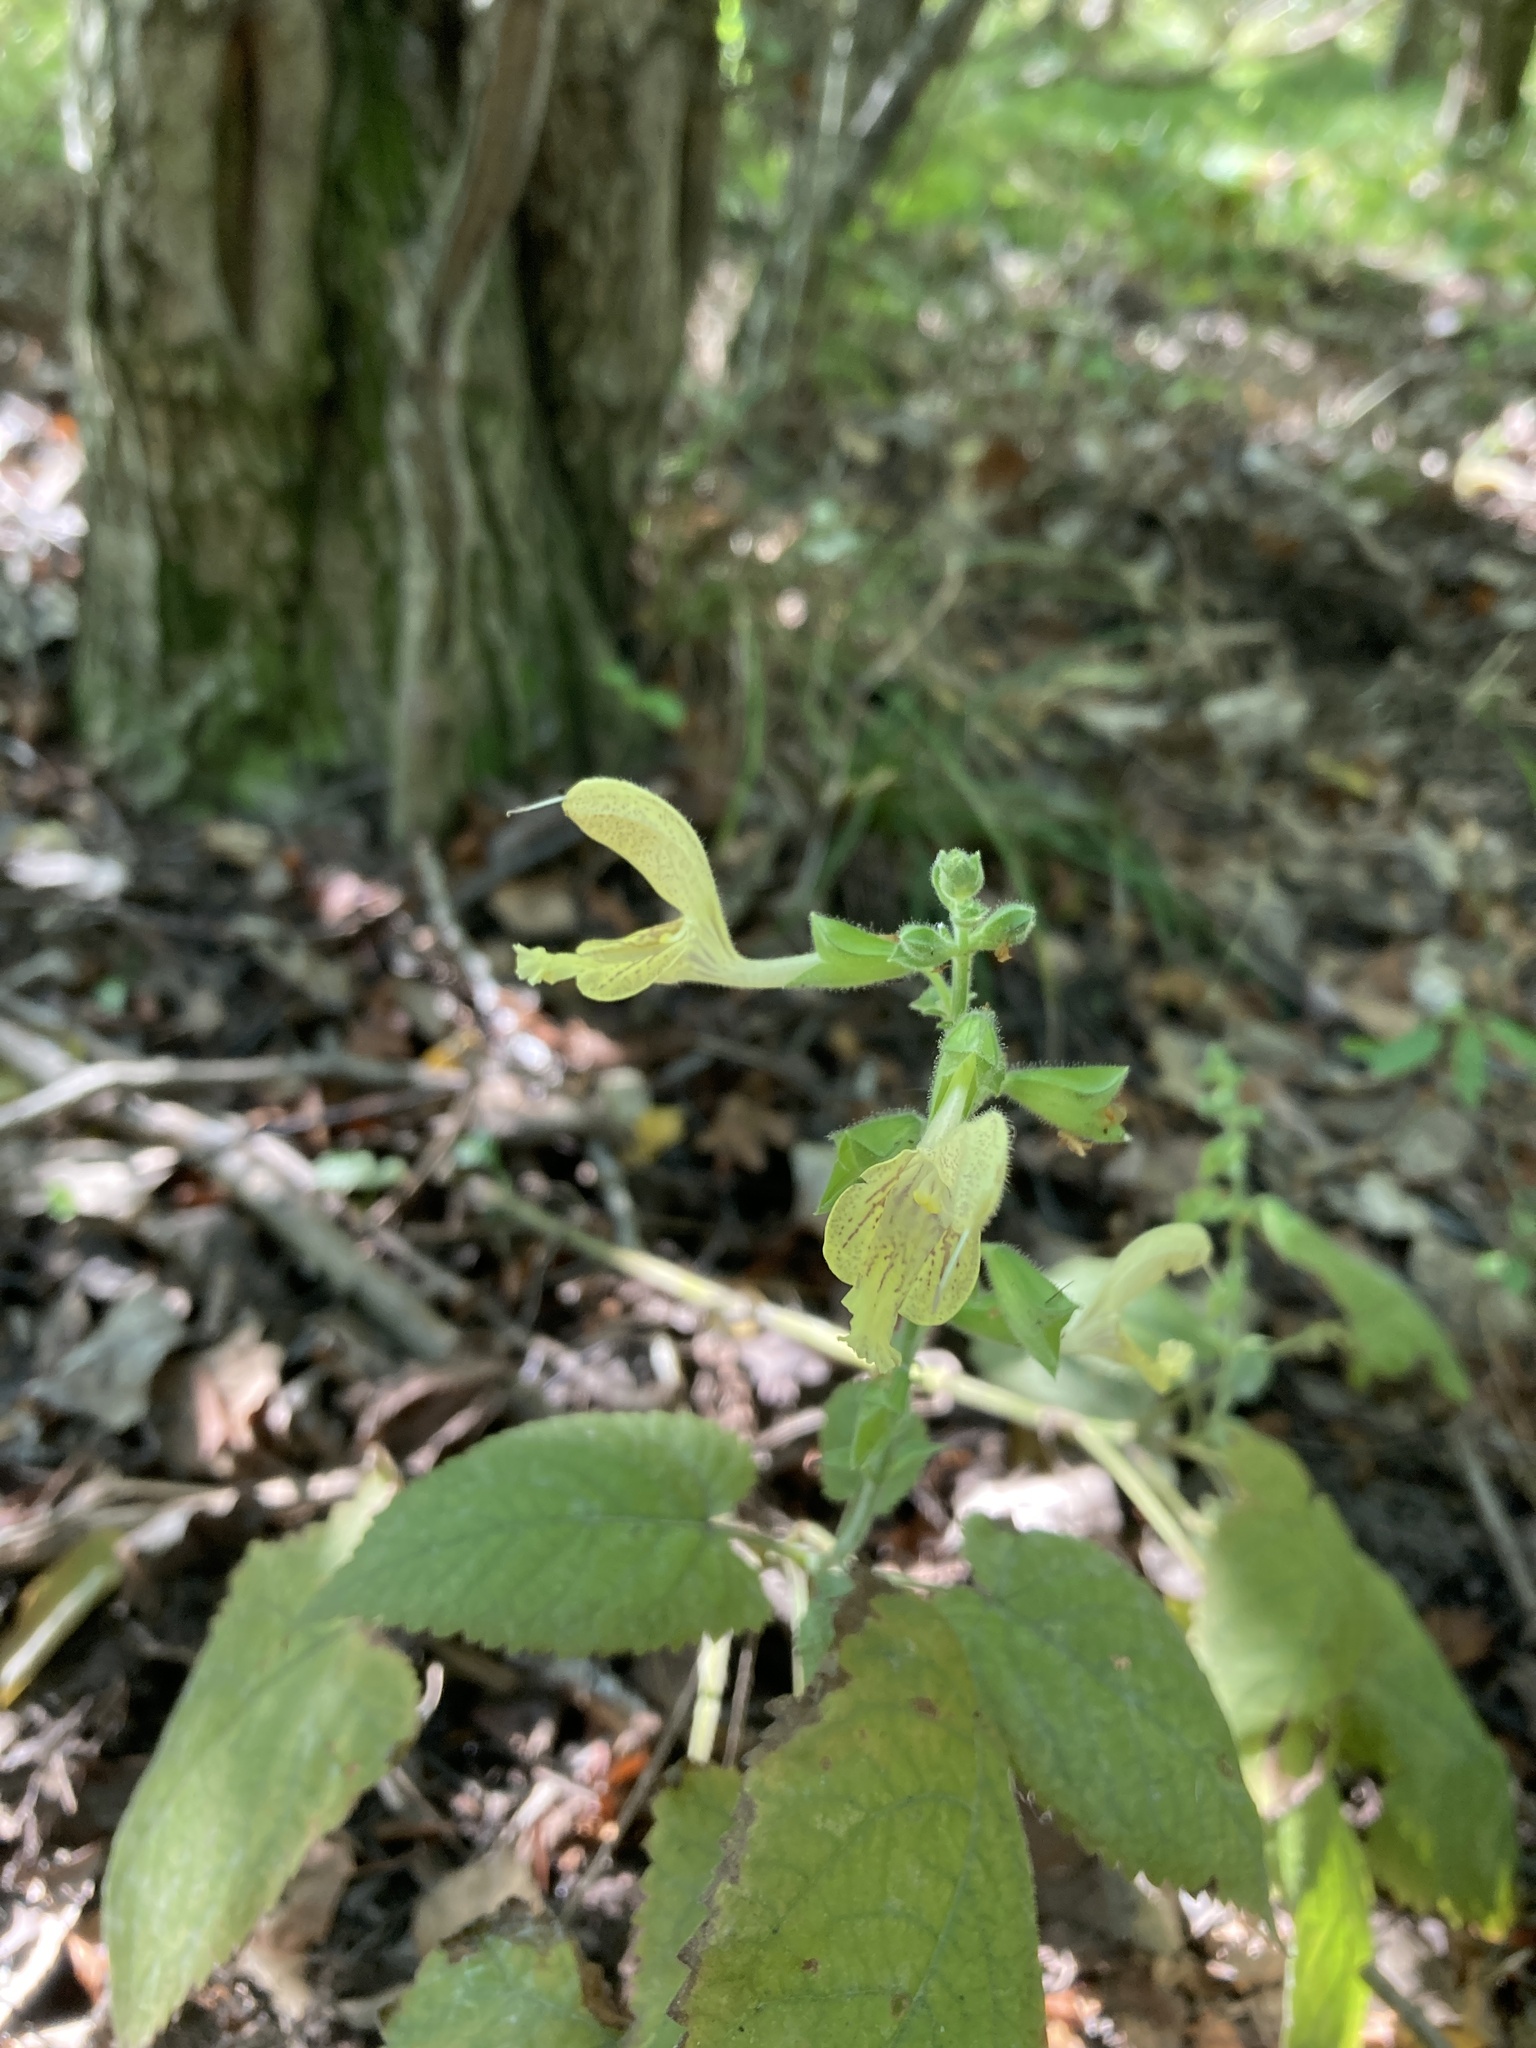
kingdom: Plantae
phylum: Tracheophyta
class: Magnoliopsida
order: Lamiales
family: Lamiaceae
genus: Salvia
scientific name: Salvia glutinosa
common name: Sticky clary
